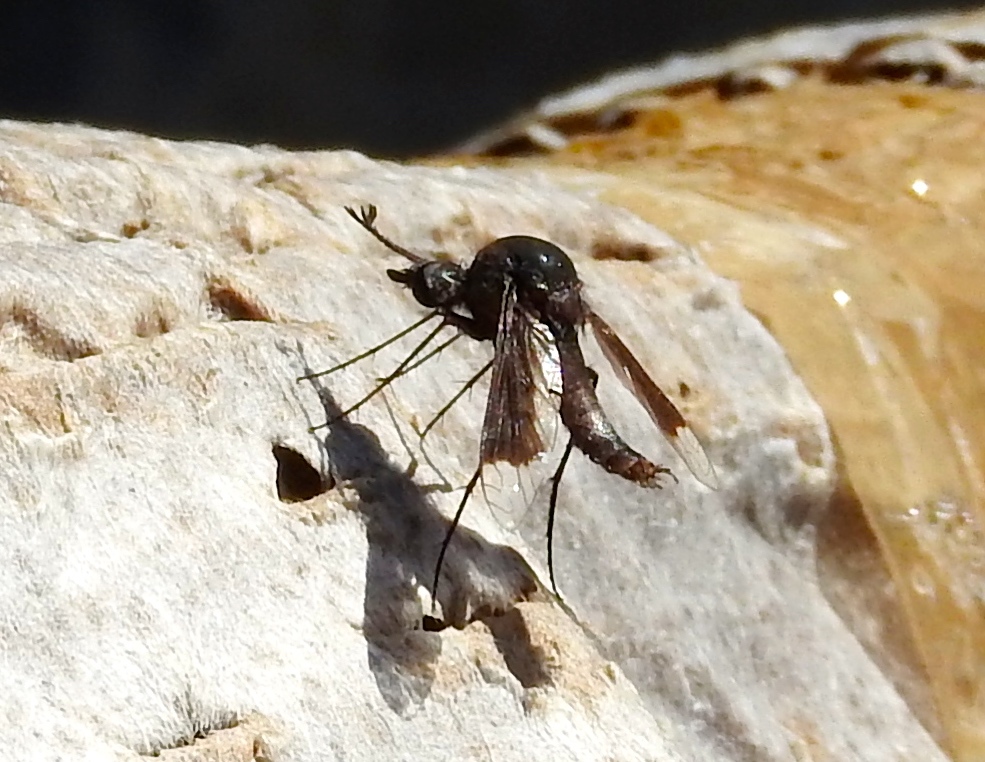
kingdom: Animalia
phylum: Arthropoda
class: Insecta
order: Diptera
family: Bombyliidae
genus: Lepidophora
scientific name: Lepidophora
